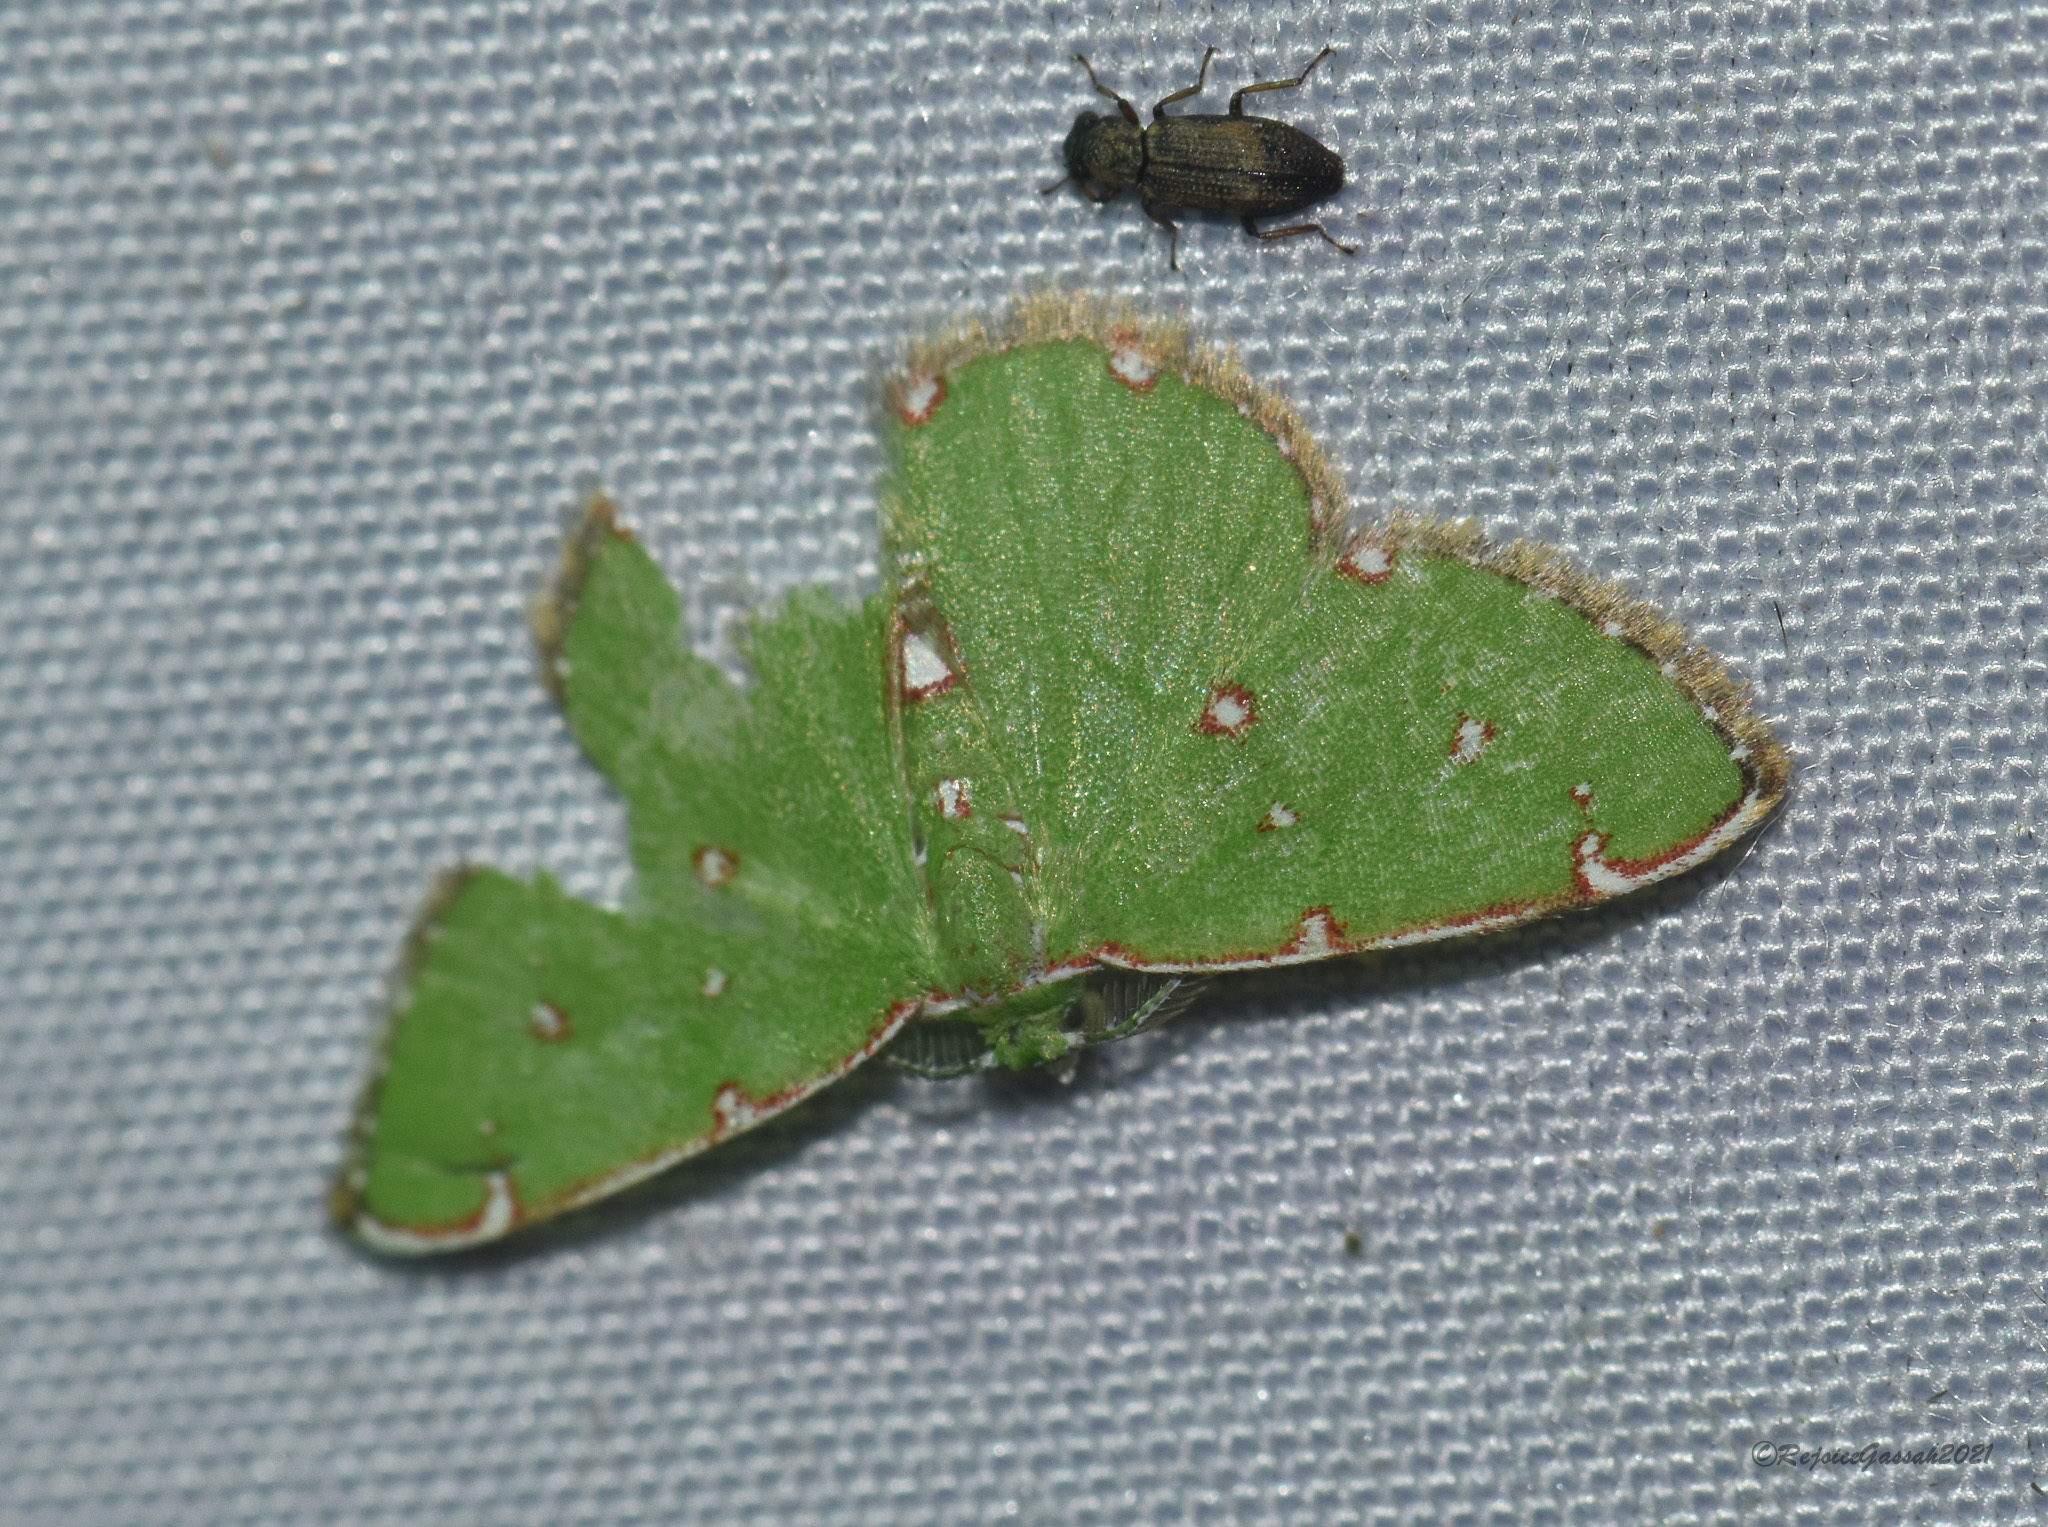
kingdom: Animalia
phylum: Arthropoda
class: Insecta
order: Lepidoptera
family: Geometridae
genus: Argyrocosma
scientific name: Argyrocosma inductaria
